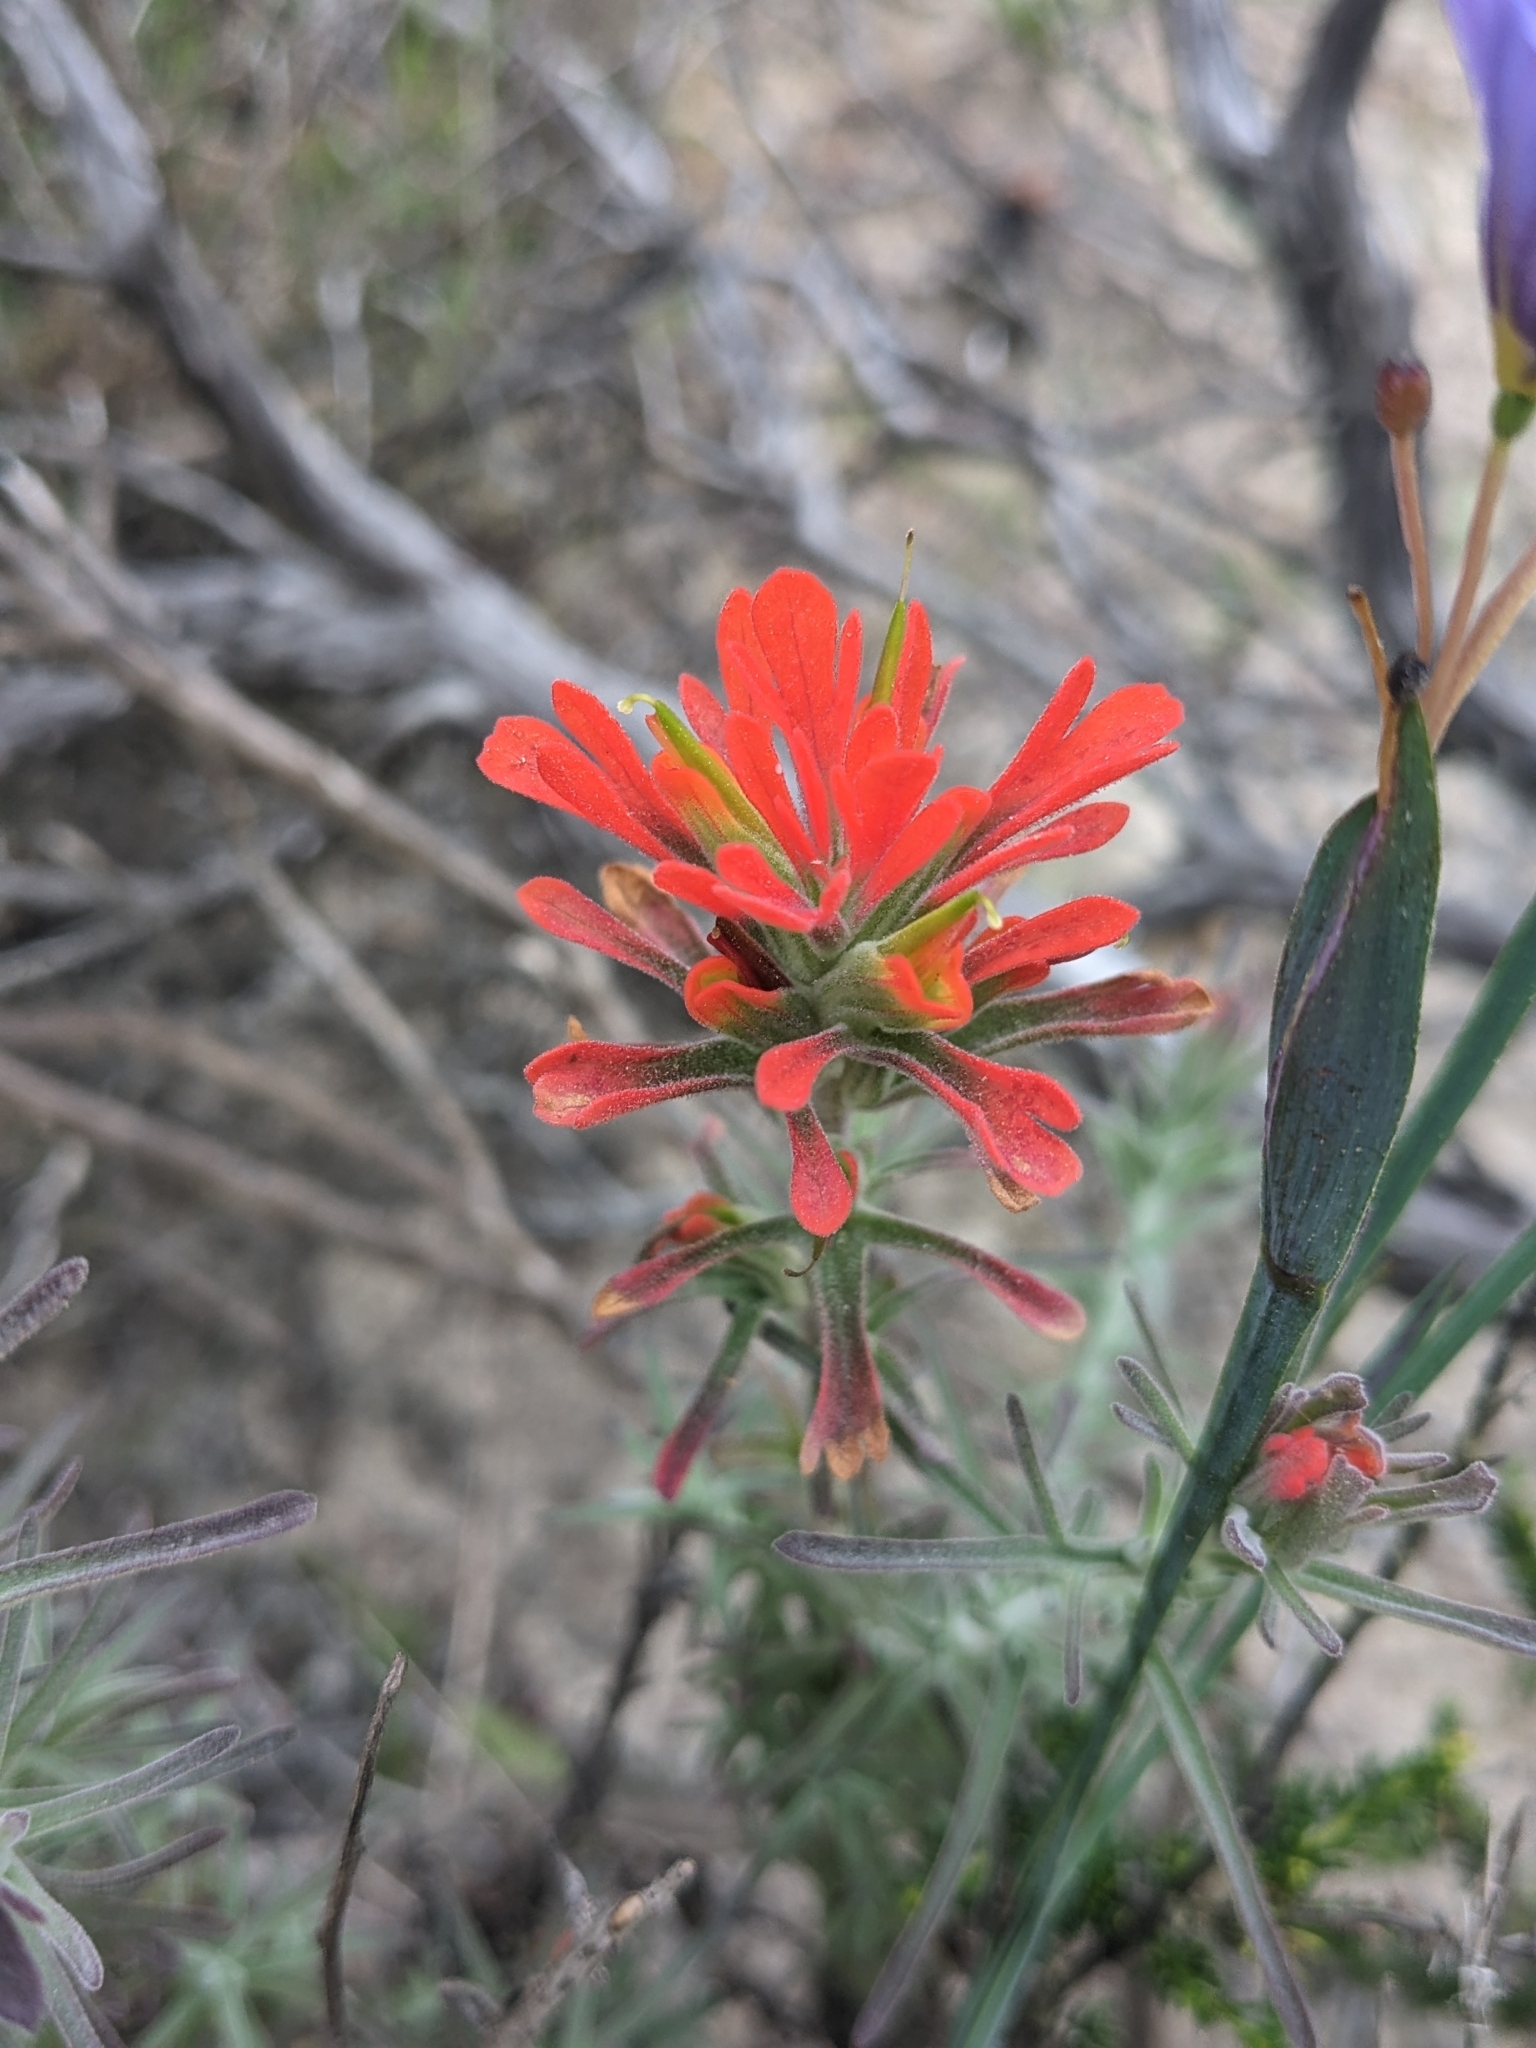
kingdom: Plantae
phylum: Tracheophyta
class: Magnoliopsida
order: Lamiales
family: Orobanchaceae
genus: Castilleja
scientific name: Castilleja foliolosa
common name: Woolly indian paintbrush
